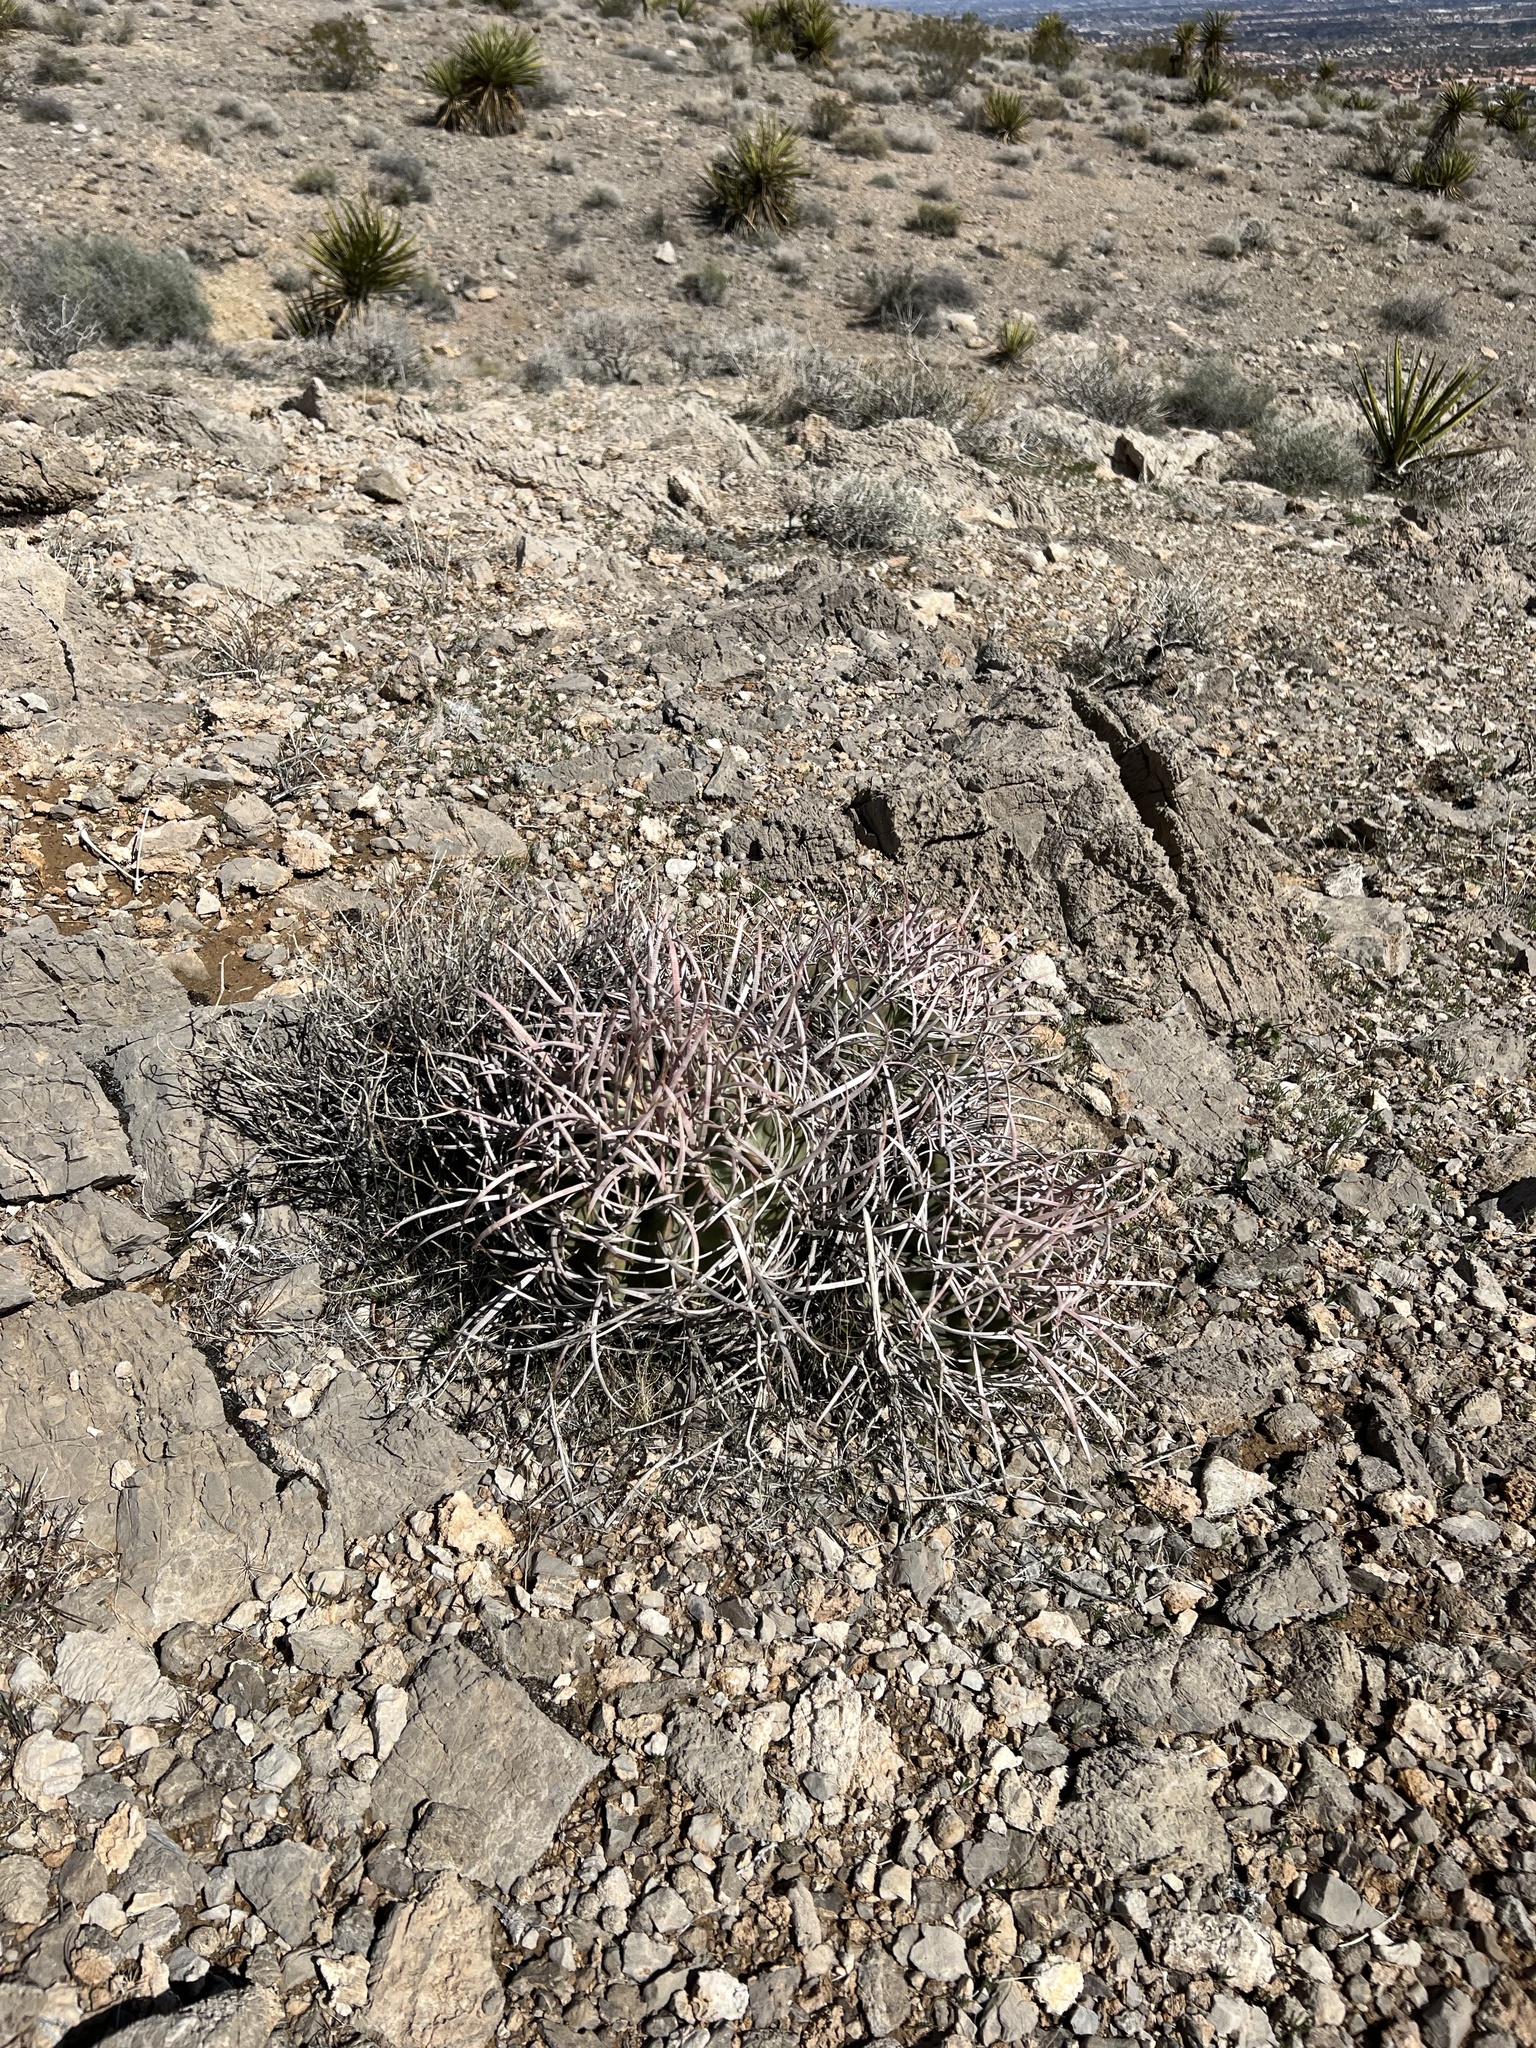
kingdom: Plantae
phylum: Tracheophyta
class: Magnoliopsida
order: Caryophyllales
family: Cactaceae
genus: Echinocactus
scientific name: Echinocactus polycephalus
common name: Cottontop cactus
